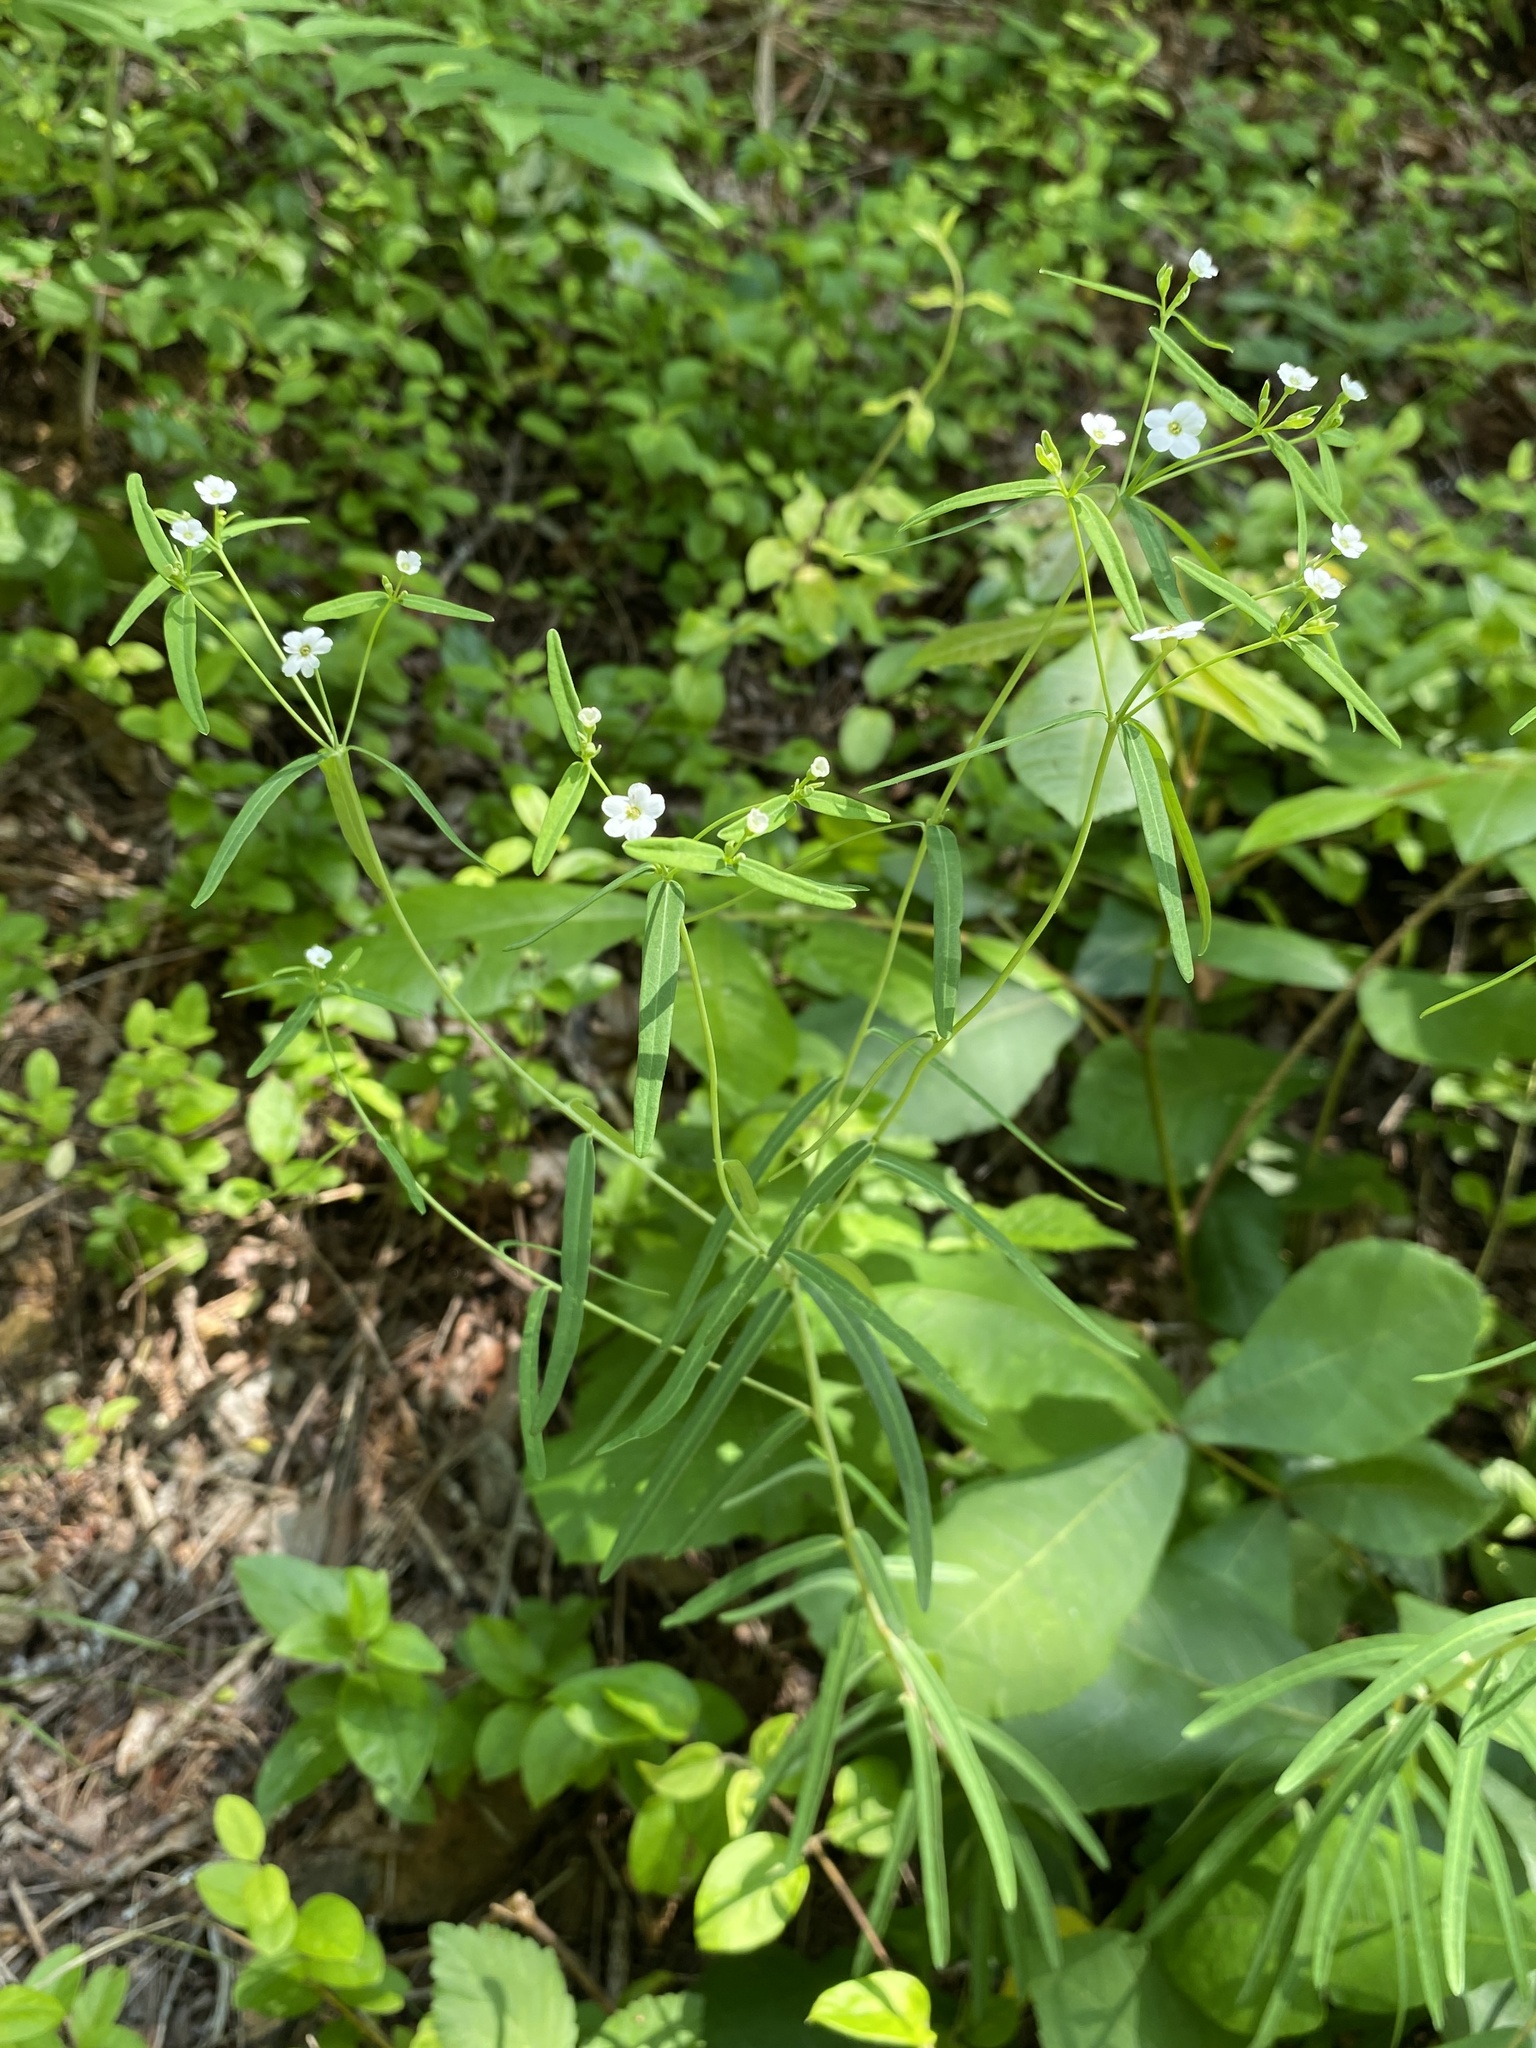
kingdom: Plantae
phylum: Tracheophyta
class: Magnoliopsida
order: Malpighiales
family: Euphorbiaceae
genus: Euphorbia
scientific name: Euphorbia corollata
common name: Flowering spurge
